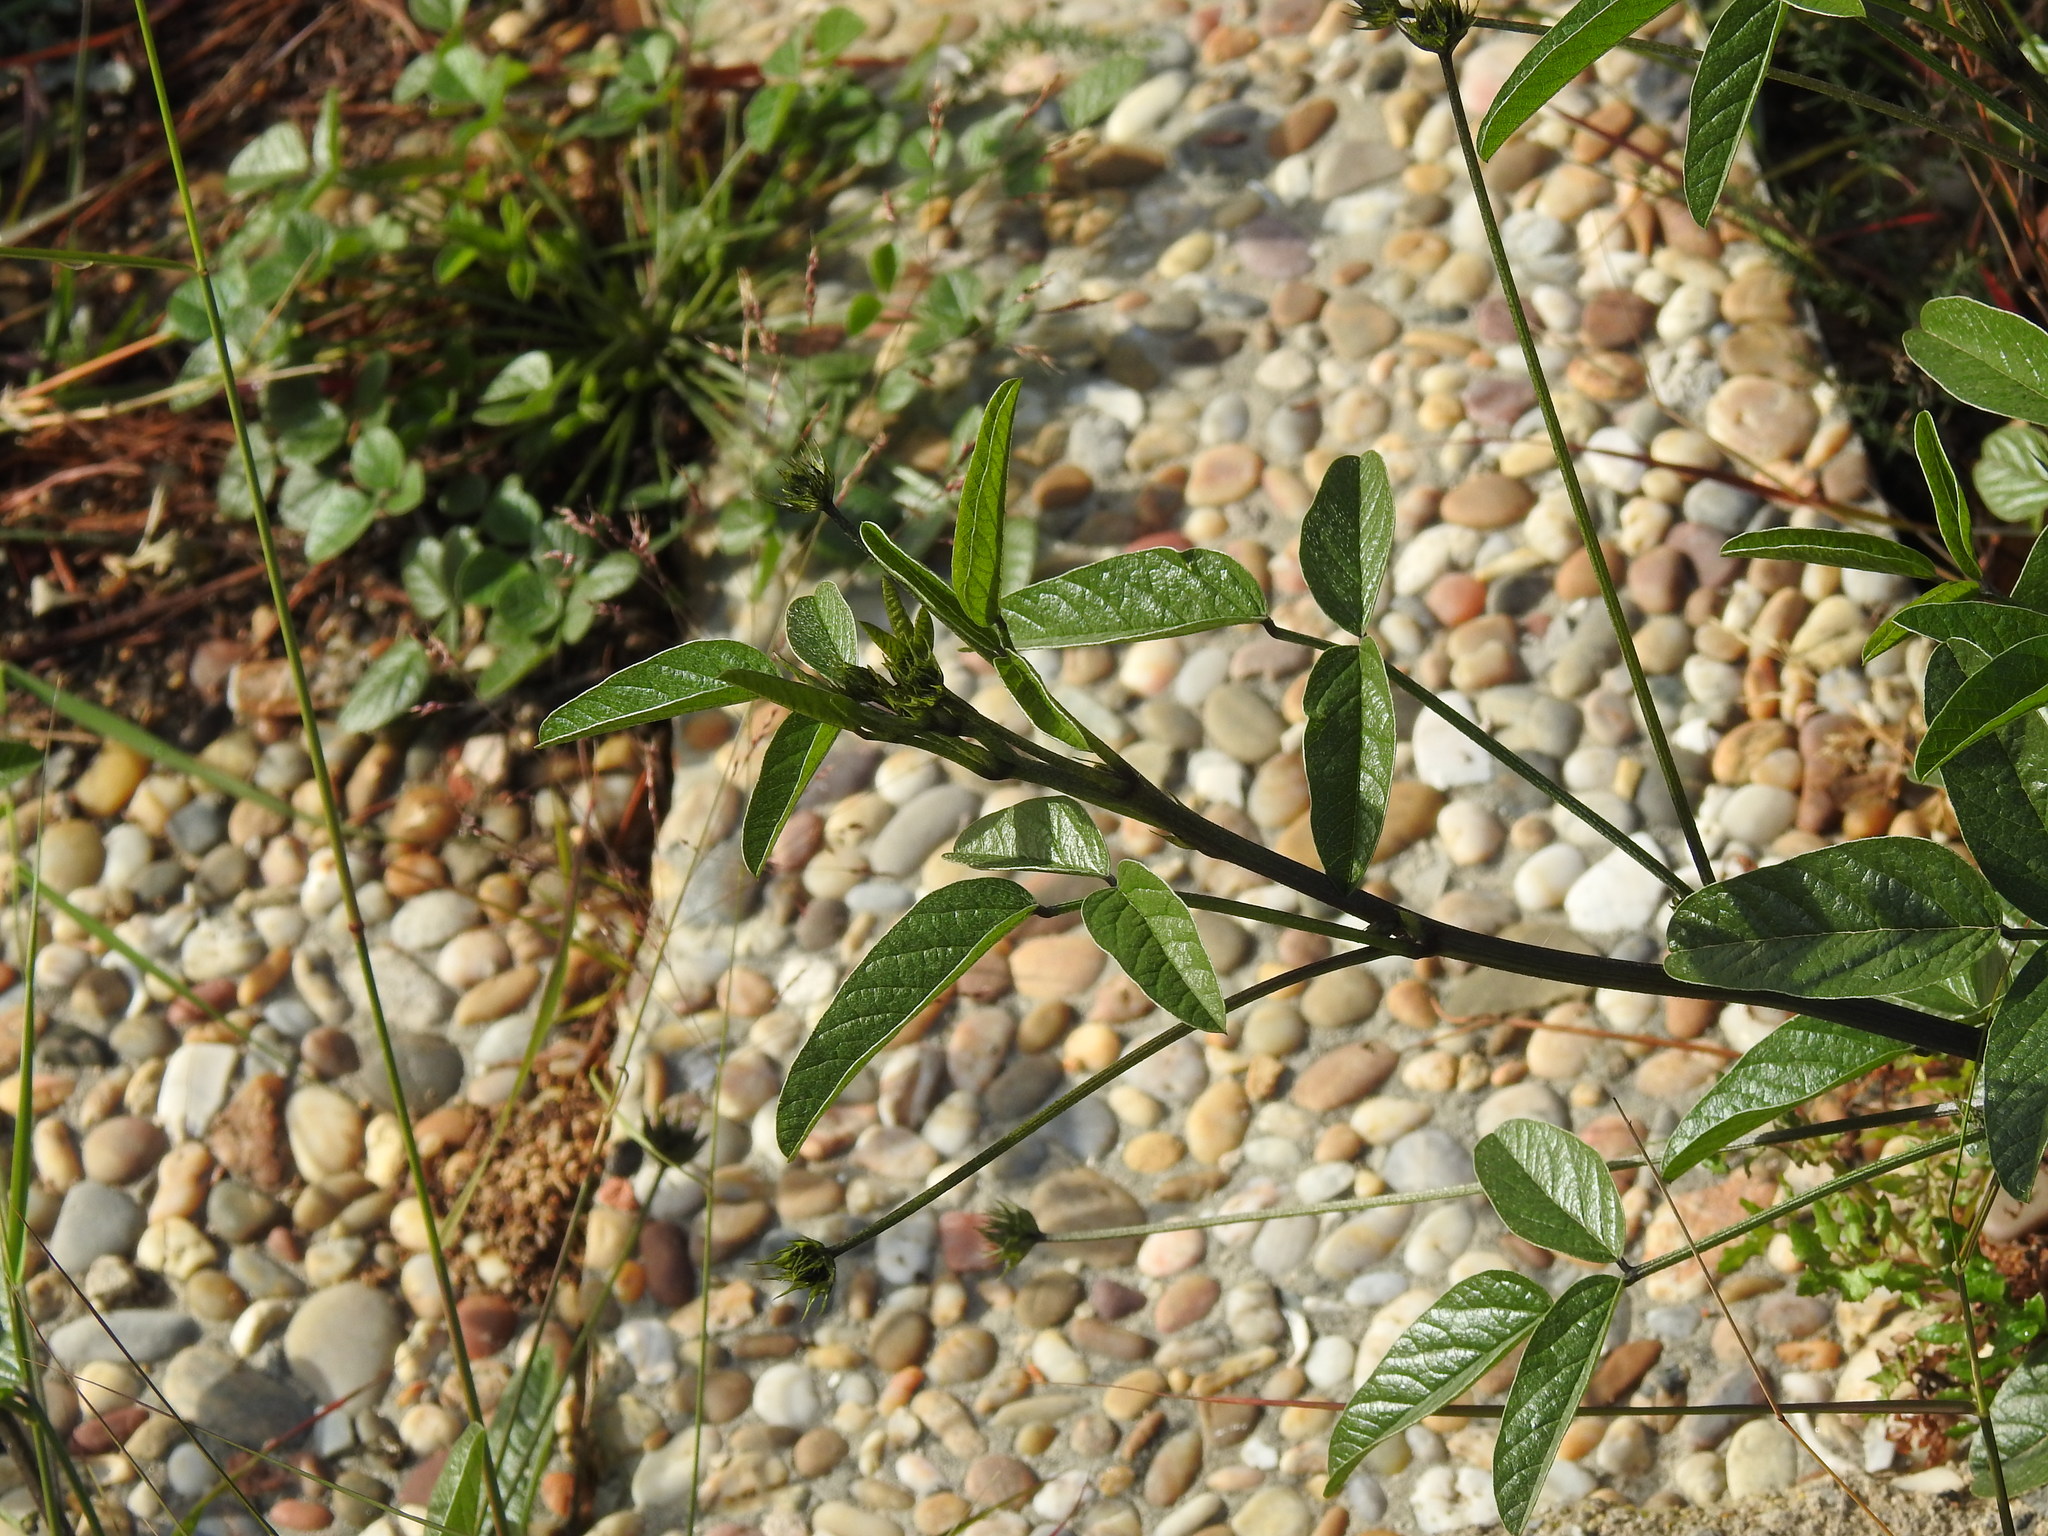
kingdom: Plantae
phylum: Tracheophyta
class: Magnoliopsida
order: Fabales
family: Fabaceae
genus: Bituminaria
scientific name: Bituminaria bituminosa
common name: Arabian pea
